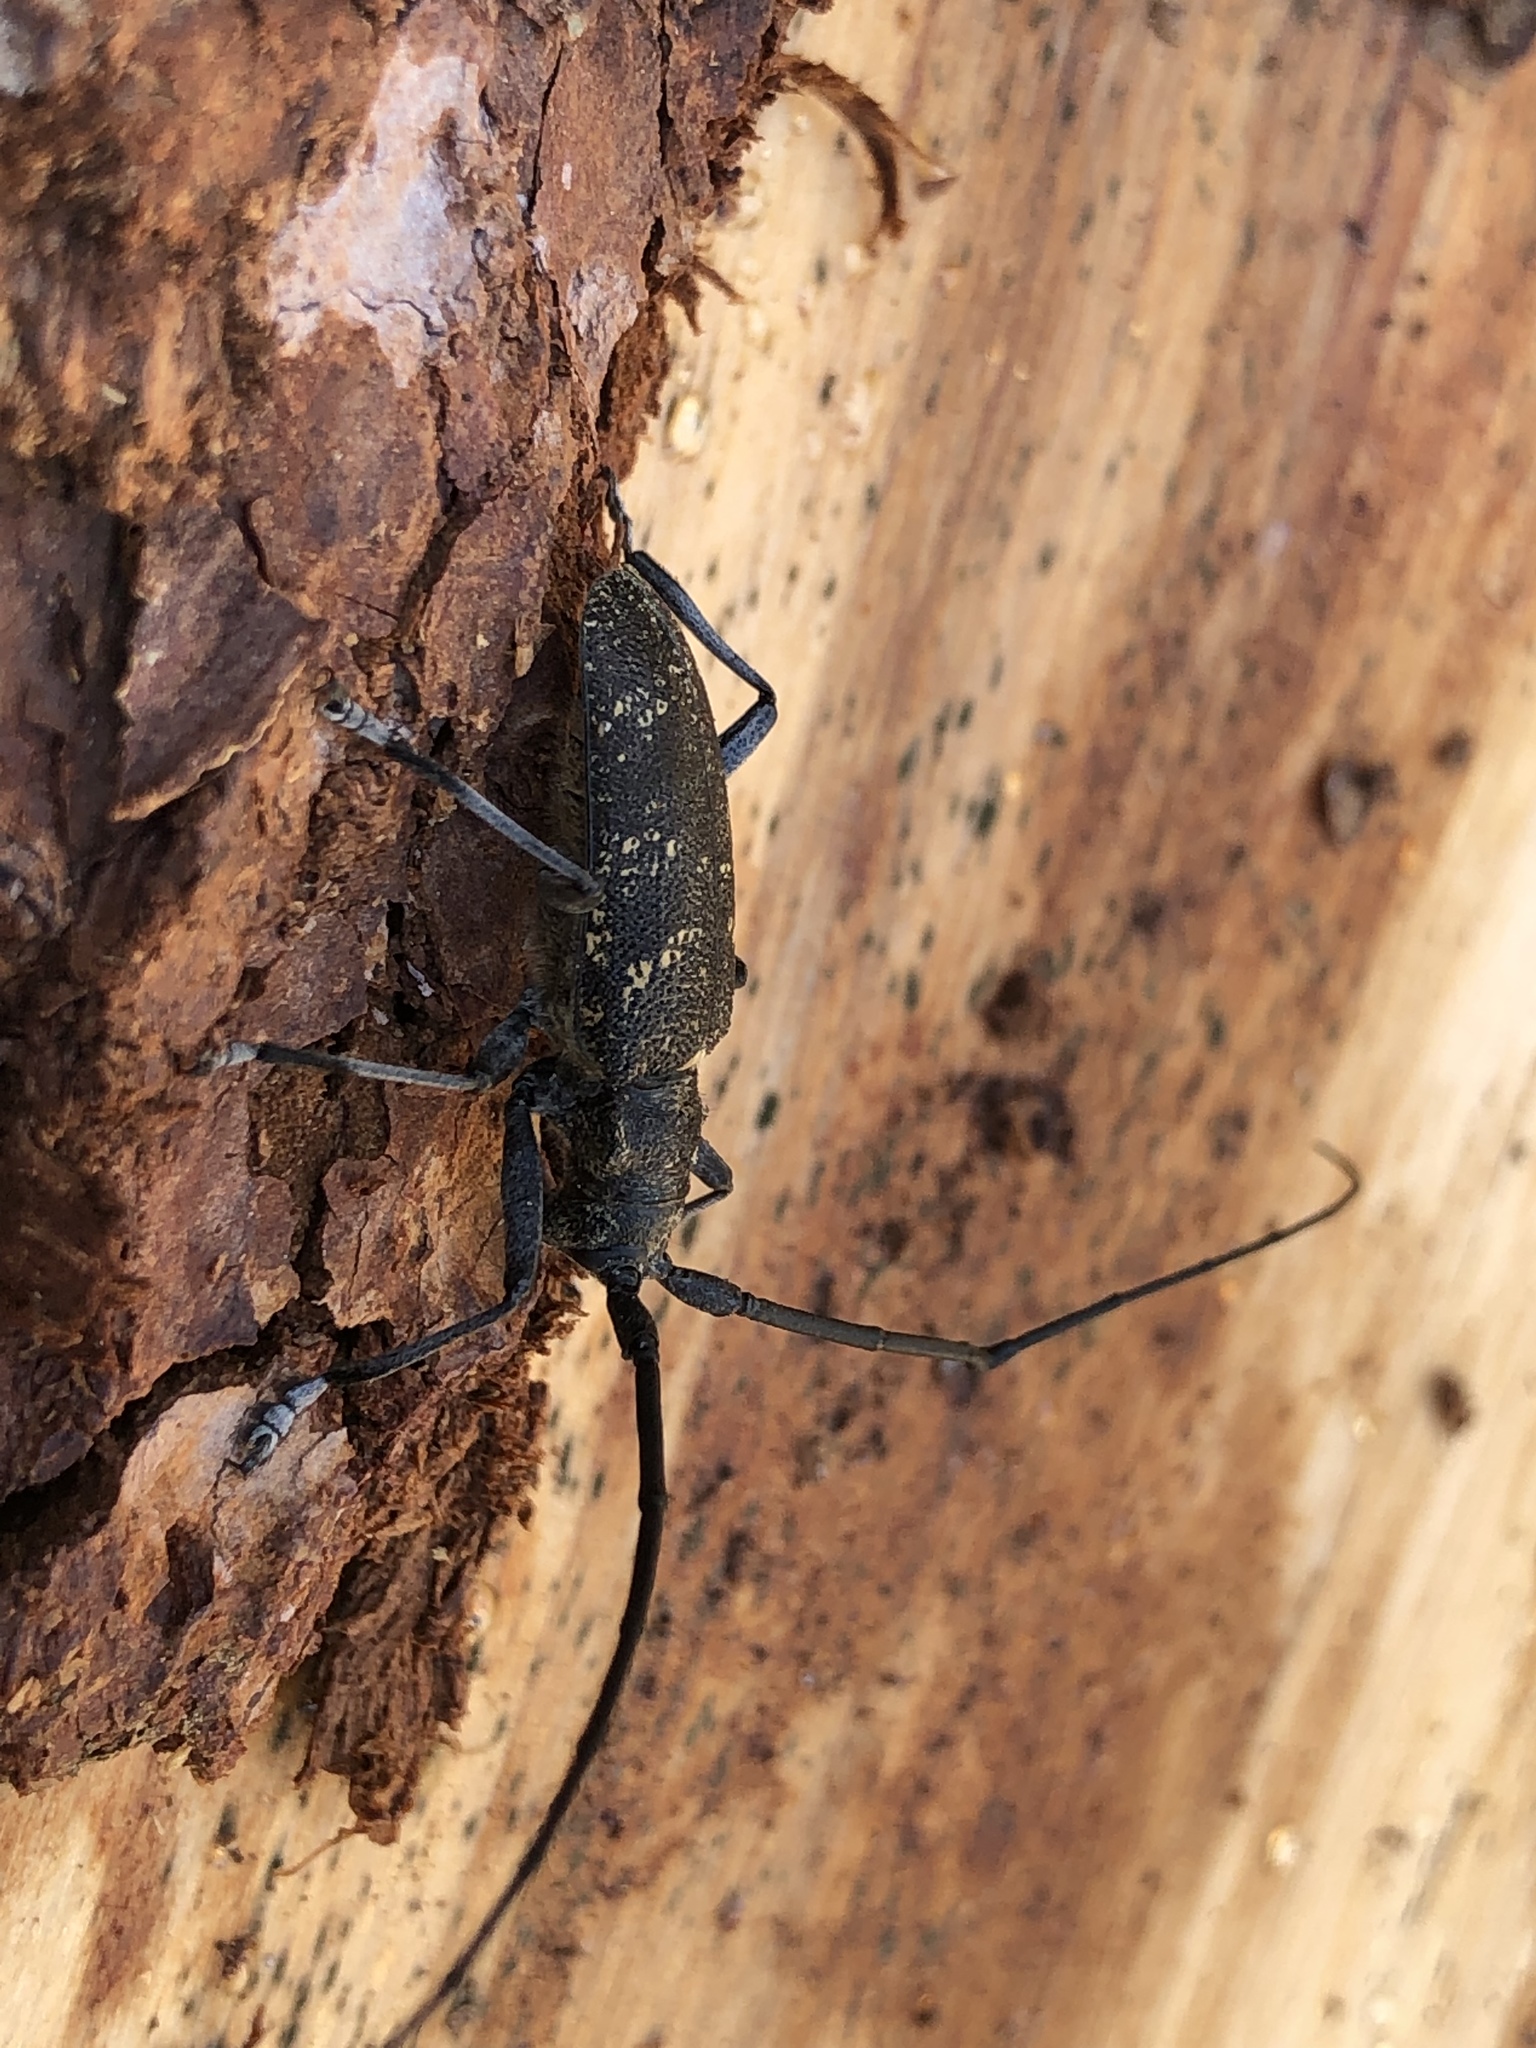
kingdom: Animalia
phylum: Arthropoda
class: Insecta
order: Coleoptera
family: Cerambycidae
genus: Monochamus
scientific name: Monochamus sutor
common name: Pine sawyer
